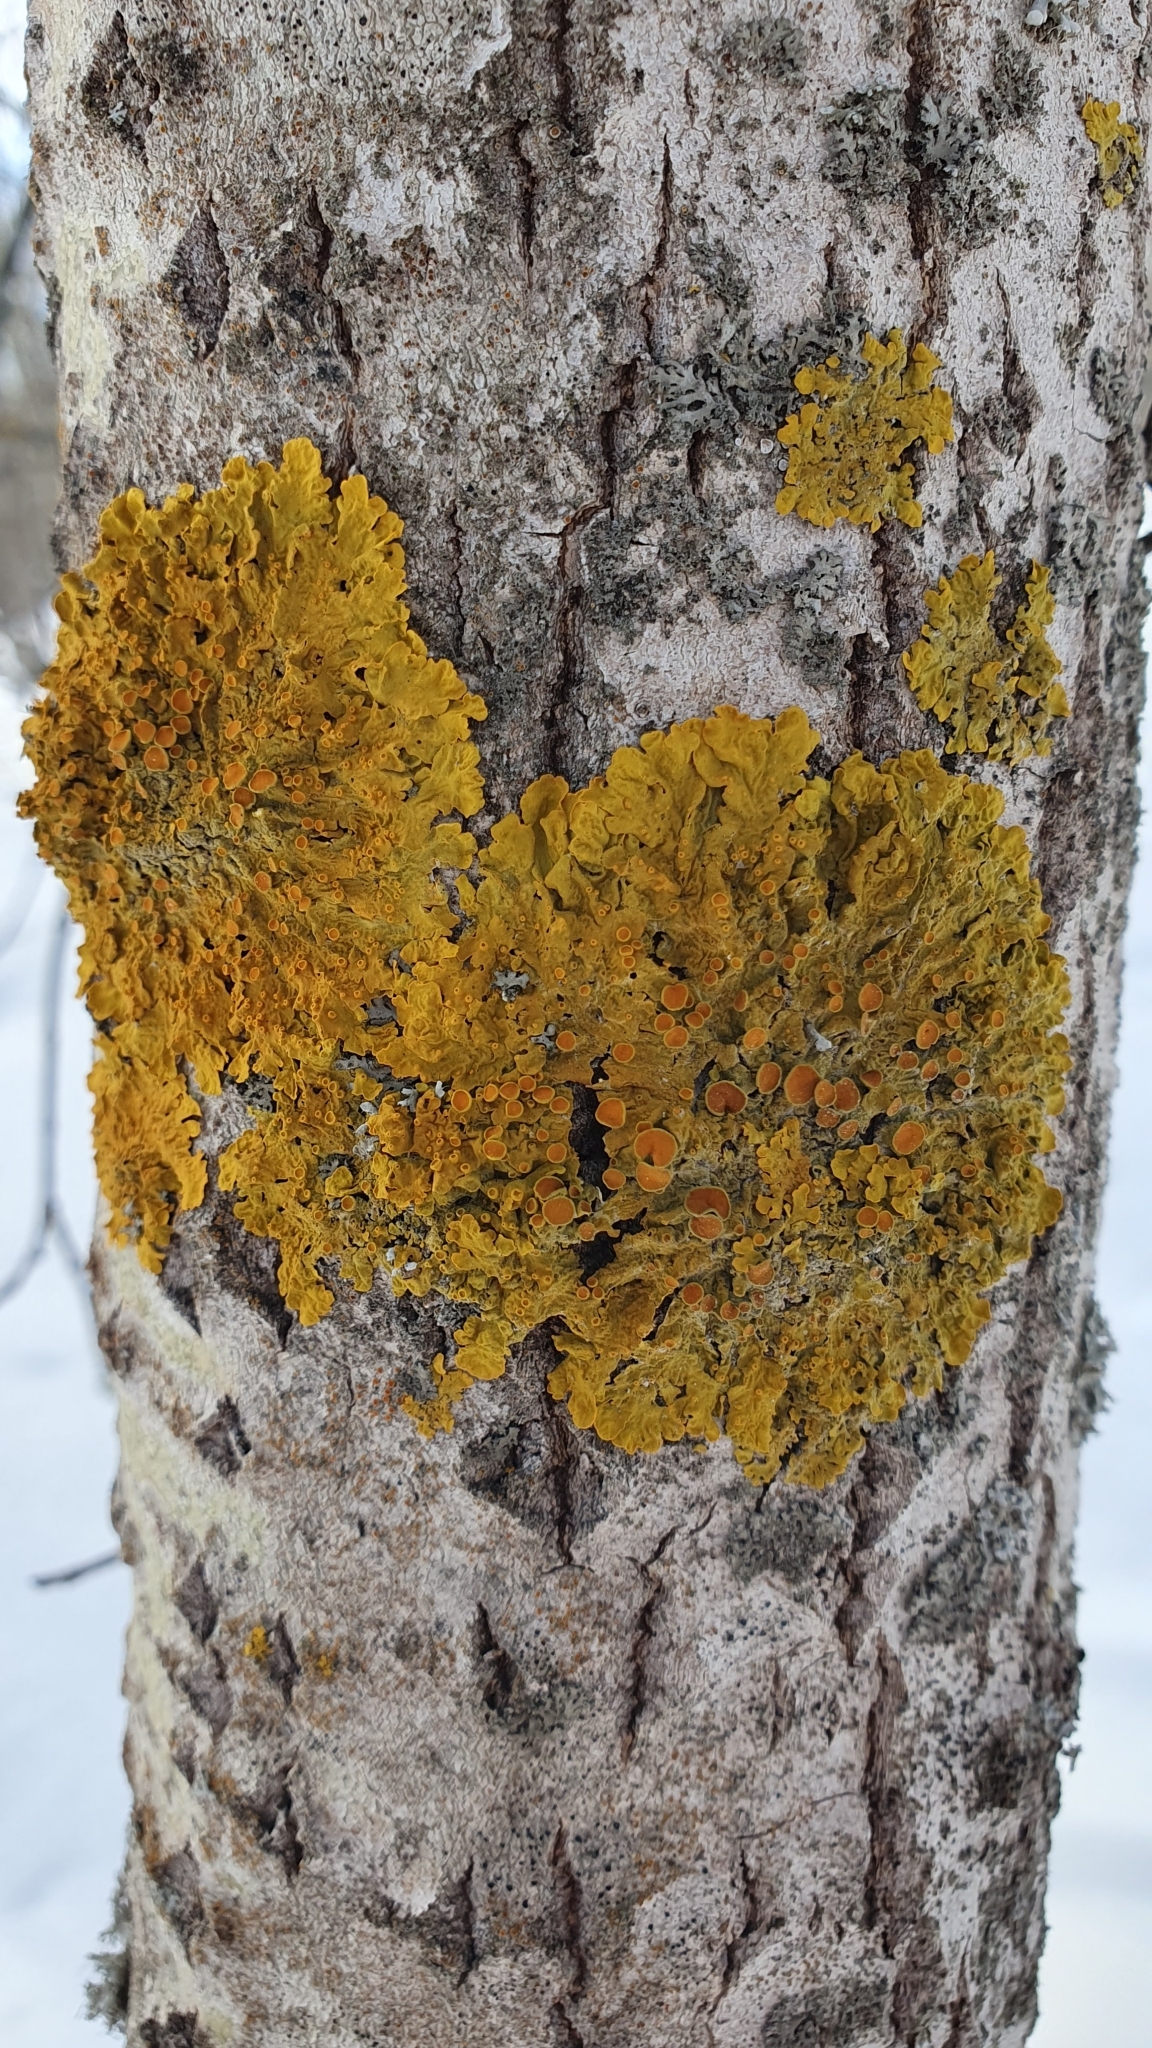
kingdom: Fungi
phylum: Ascomycota
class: Lecanoromycetes
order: Teloschistales
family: Teloschistaceae
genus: Xanthoria
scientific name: Xanthoria parietina
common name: Common orange lichen
